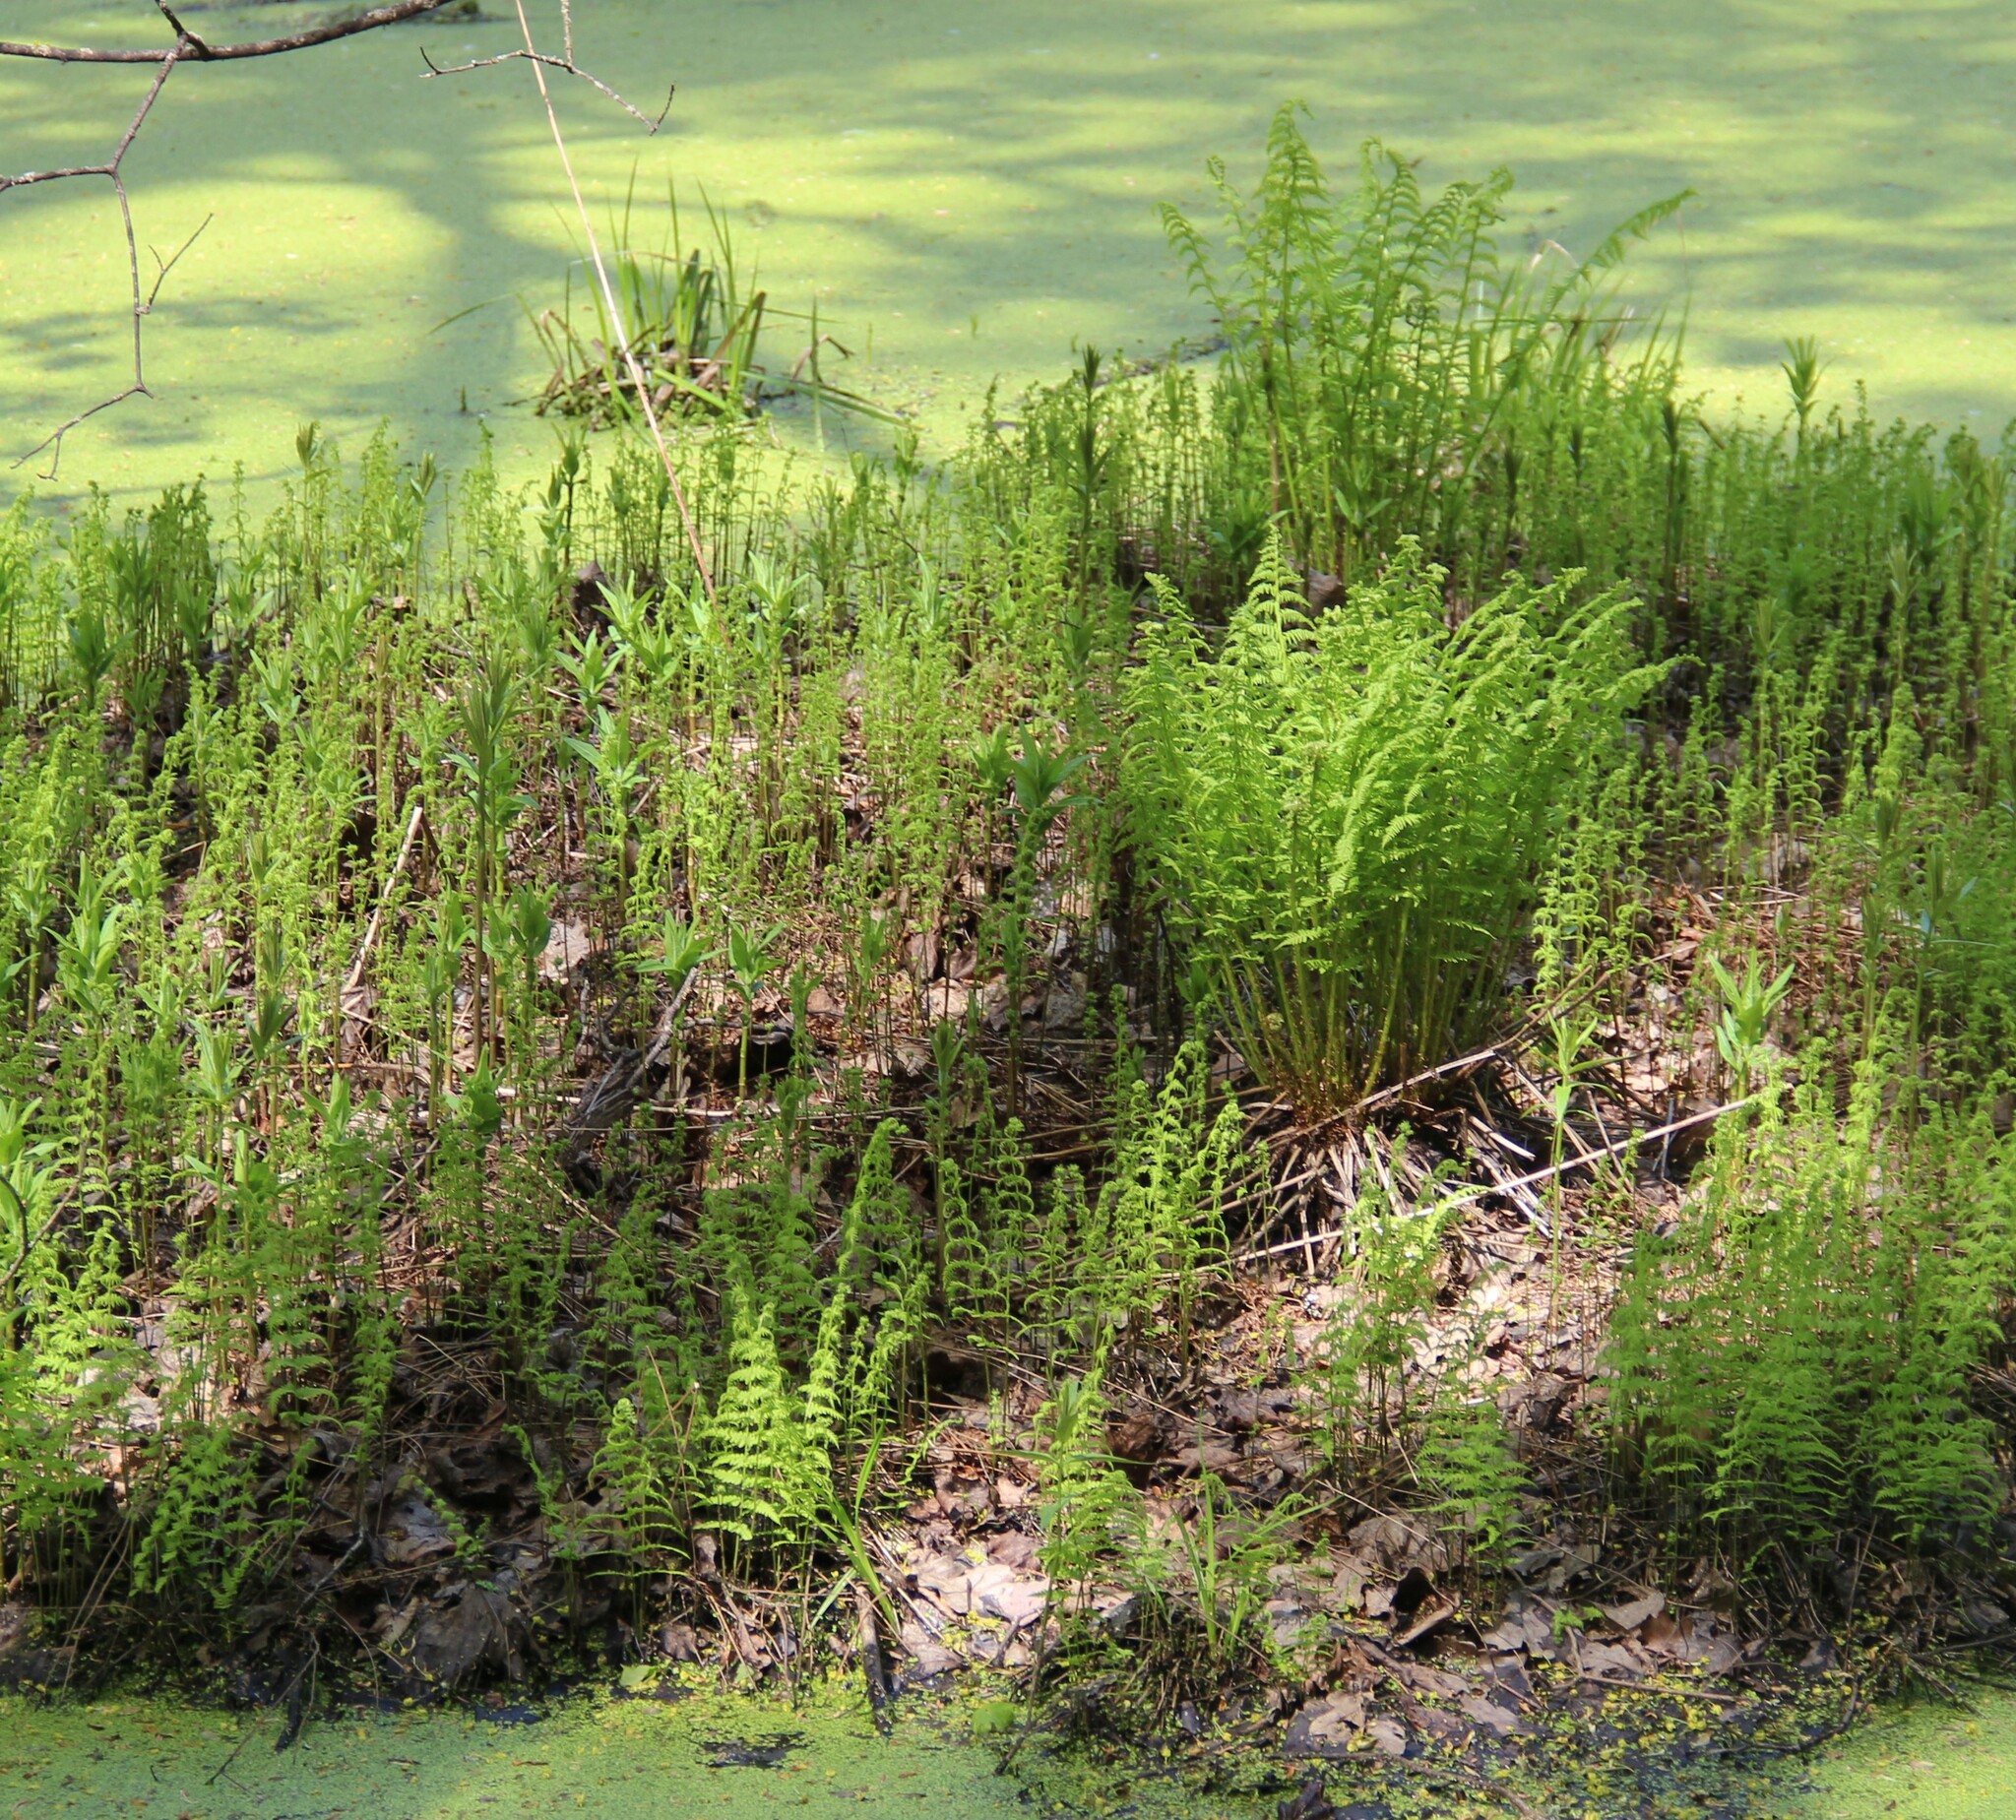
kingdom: Plantae
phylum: Tracheophyta
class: Polypodiopsida
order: Polypodiales
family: Thelypteridaceae
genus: Thelypteris
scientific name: Thelypteris palustris
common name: Marsh fern
